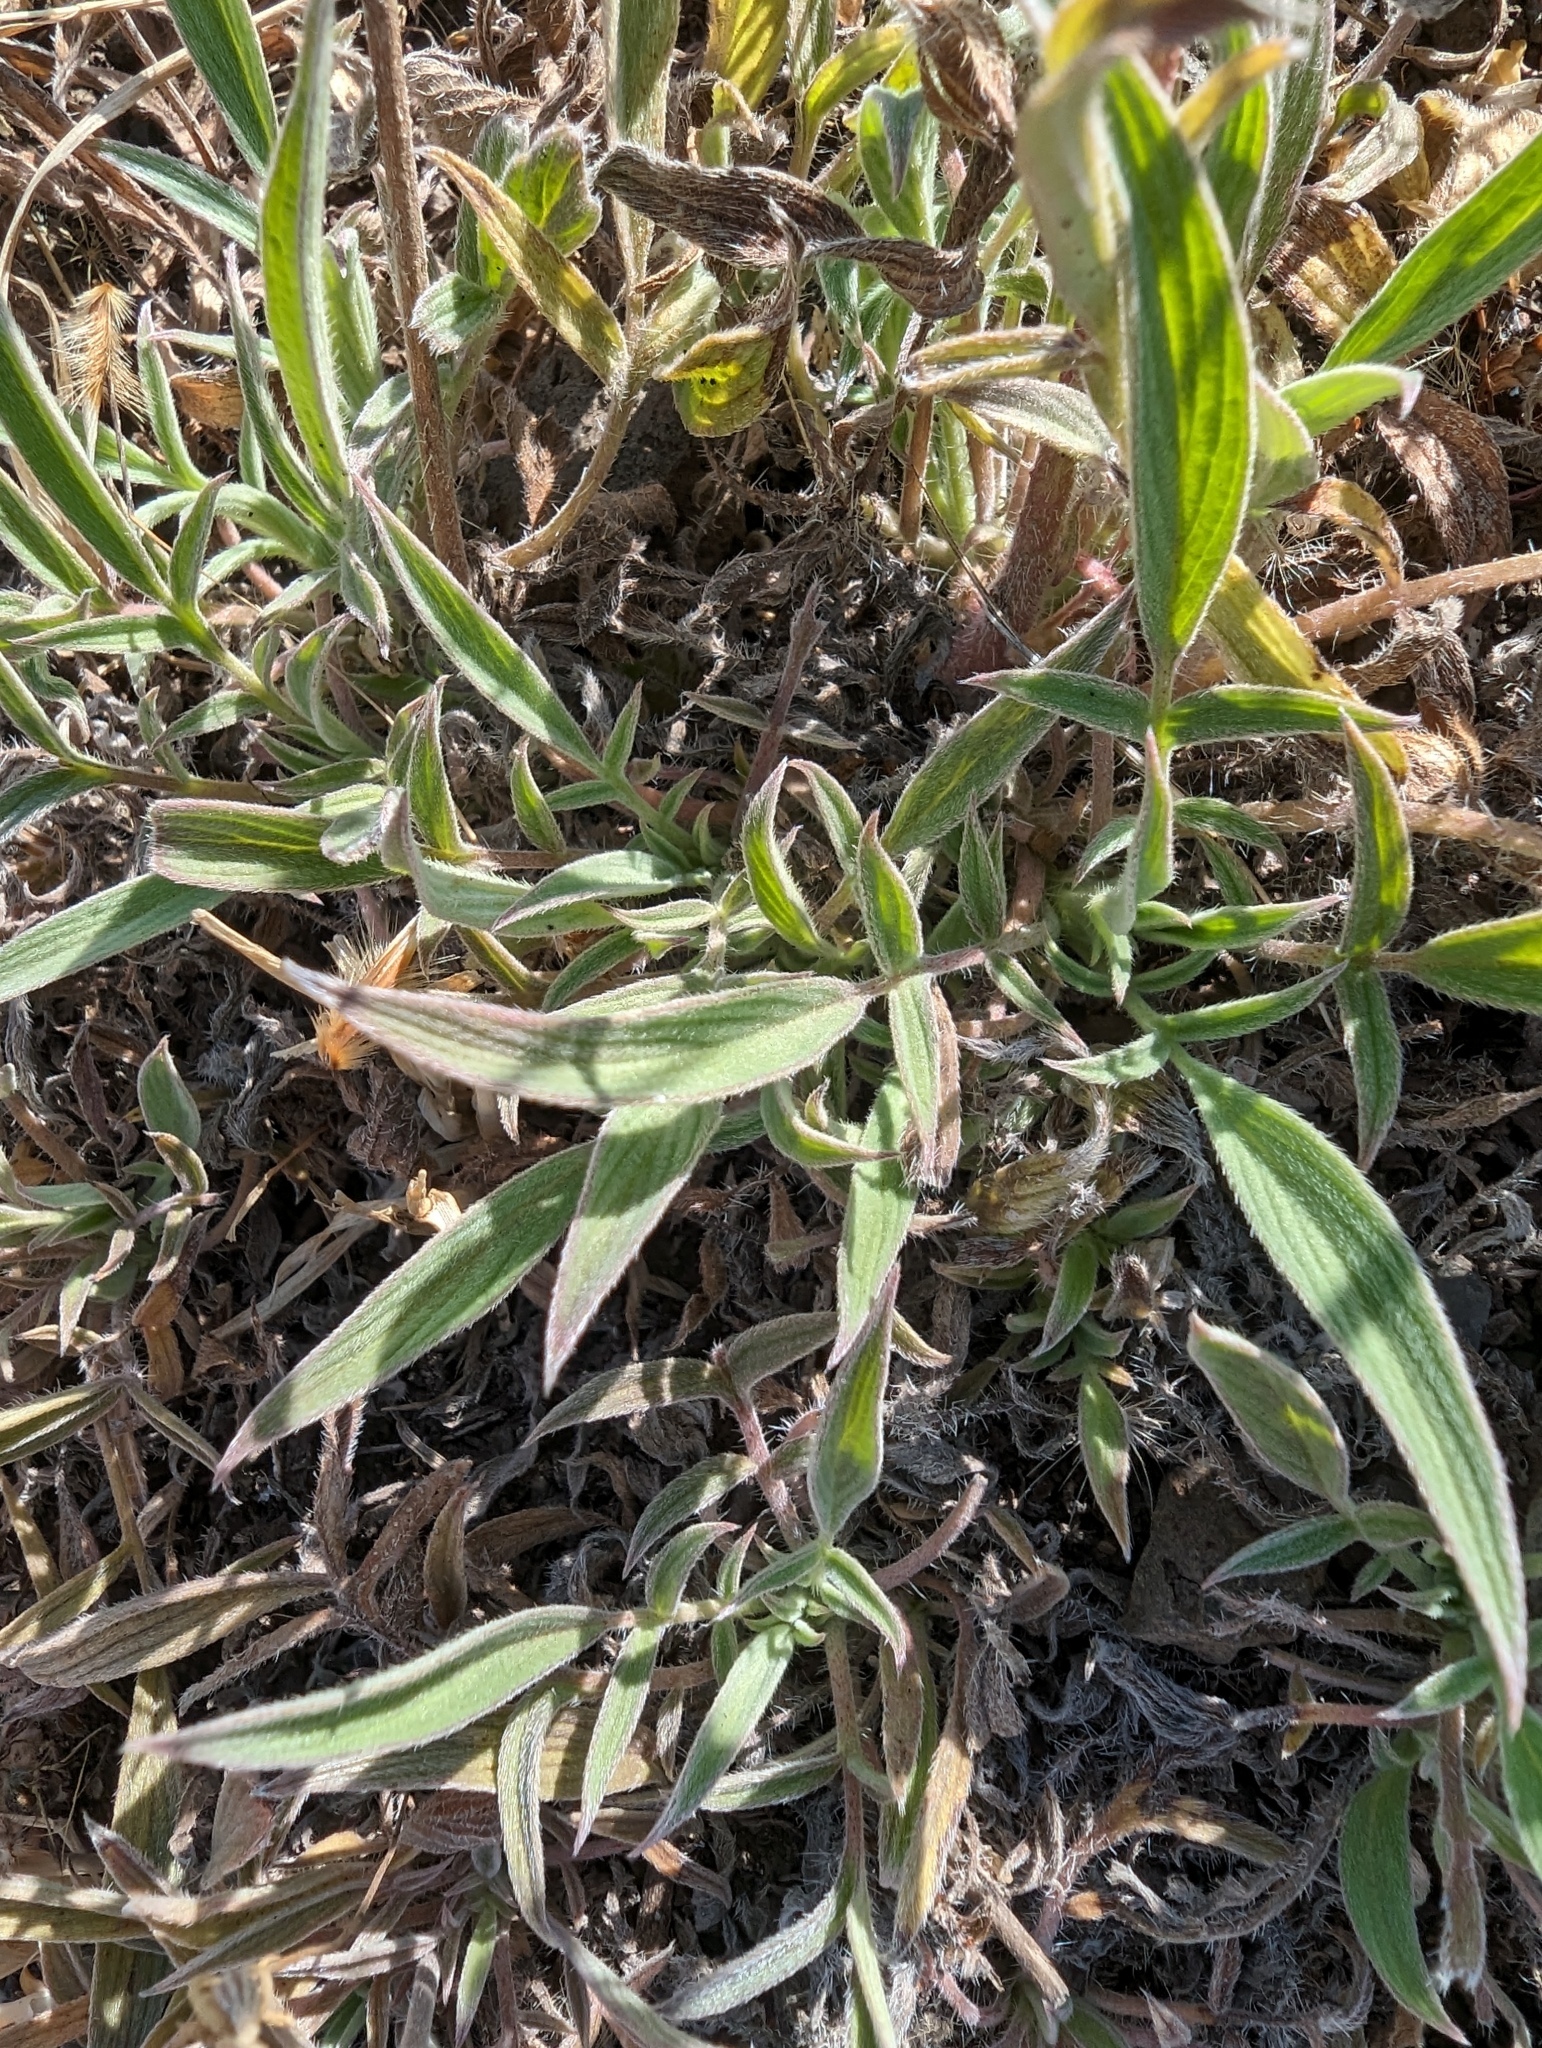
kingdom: Plantae
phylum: Tracheophyta
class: Magnoliopsida
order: Boraginales
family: Hydrophyllaceae
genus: Phacelia
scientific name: Phacelia imbricata
